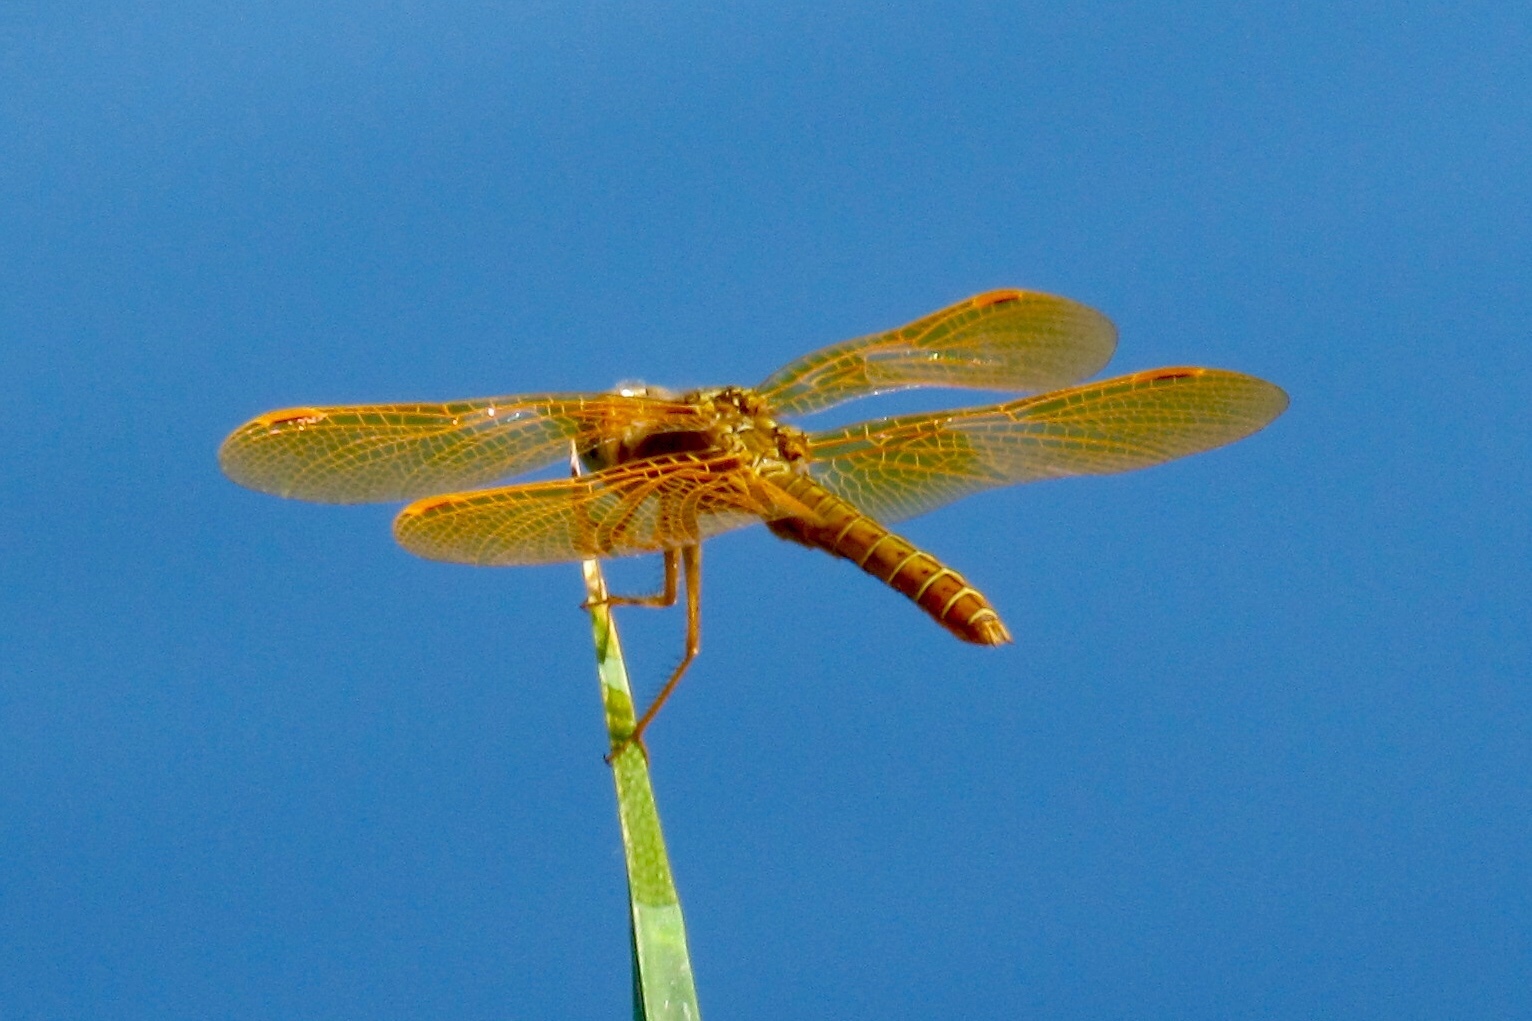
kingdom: Animalia
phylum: Arthropoda
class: Insecta
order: Odonata
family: Libellulidae
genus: Perithemis
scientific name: Perithemis intensa
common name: Mexican amberwing
